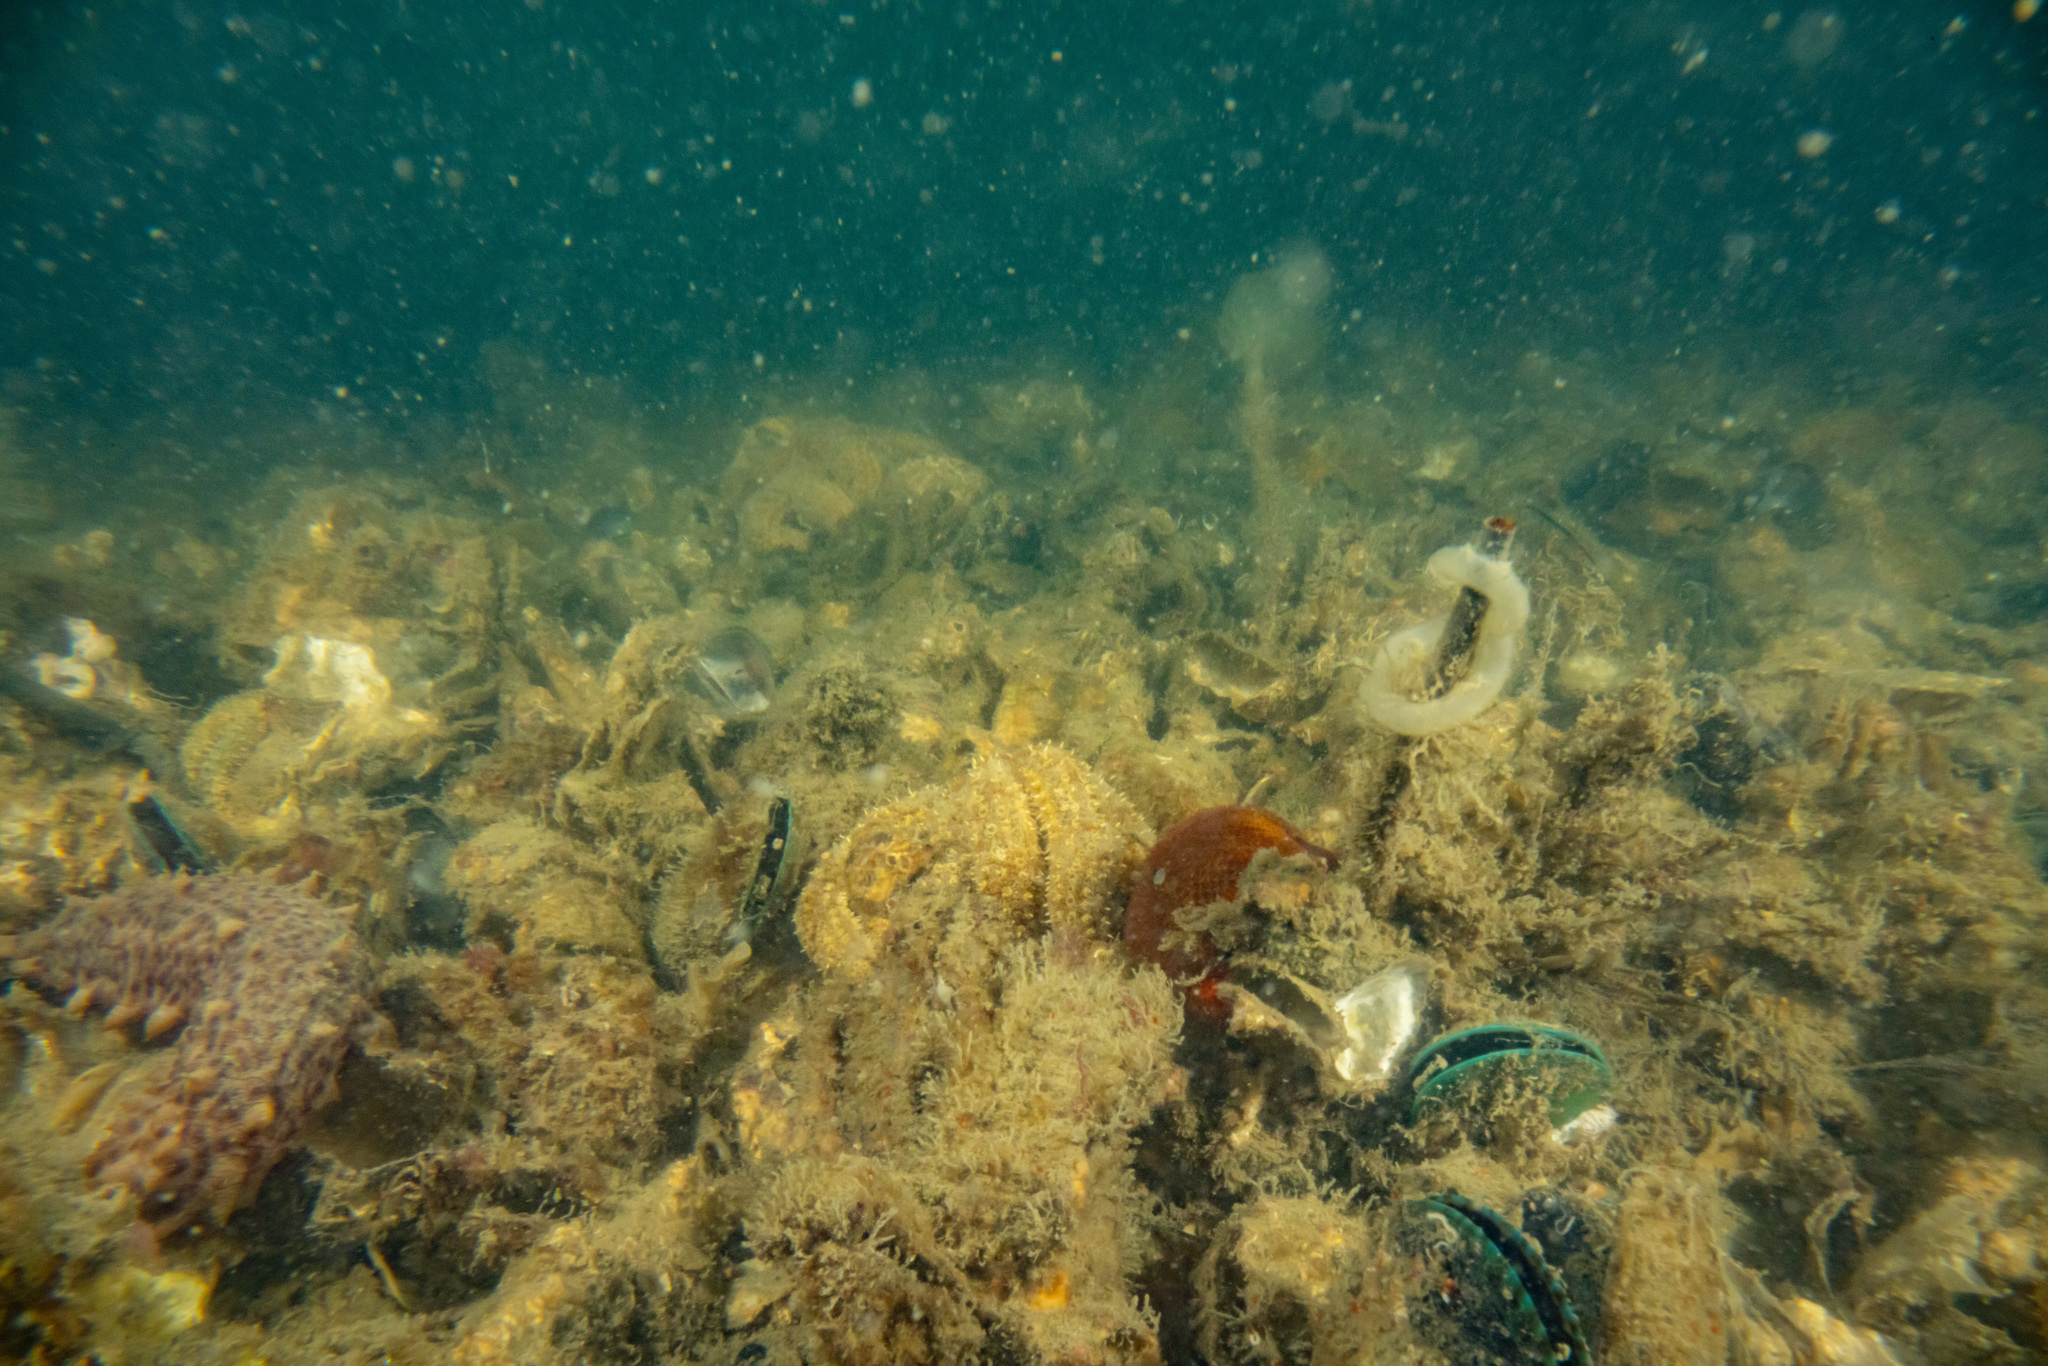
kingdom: Animalia
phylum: Mollusca
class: Bivalvia
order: Mytilida
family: Mytilidae
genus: Perna
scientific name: Perna canaliculus
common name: New zealand greenshelltm
